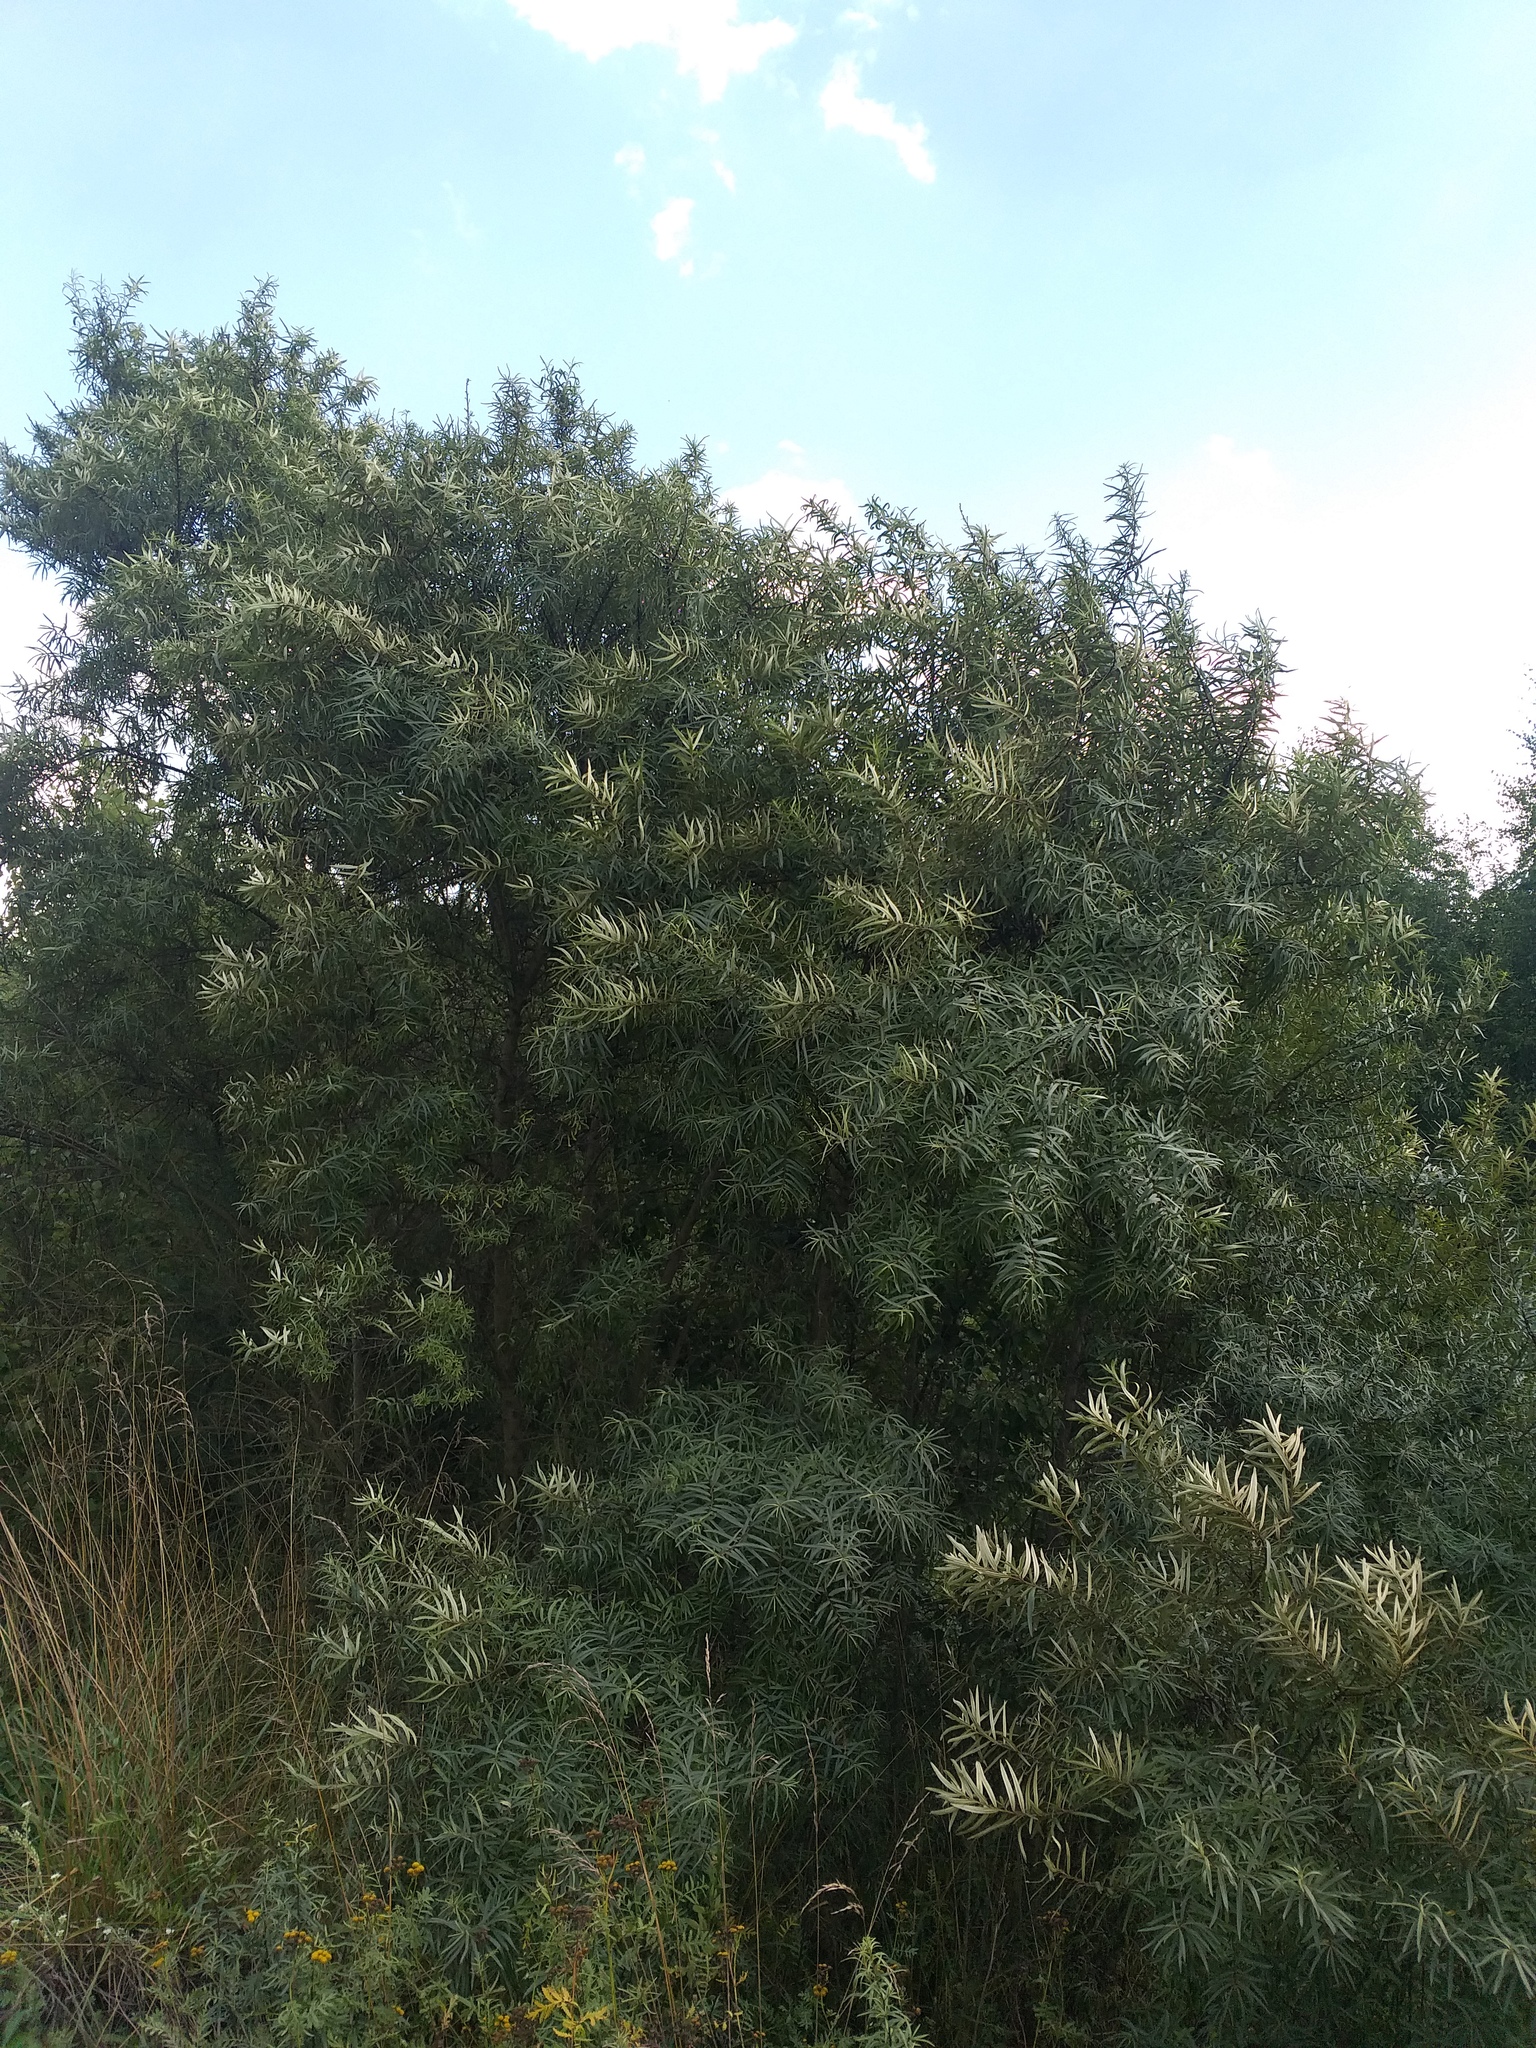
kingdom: Plantae
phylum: Tracheophyta
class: Magnoliopsida
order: Rosales
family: Elaeagnaceae
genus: Hippophae
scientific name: Hippophae rhamnoides
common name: Sea-buckthorn
